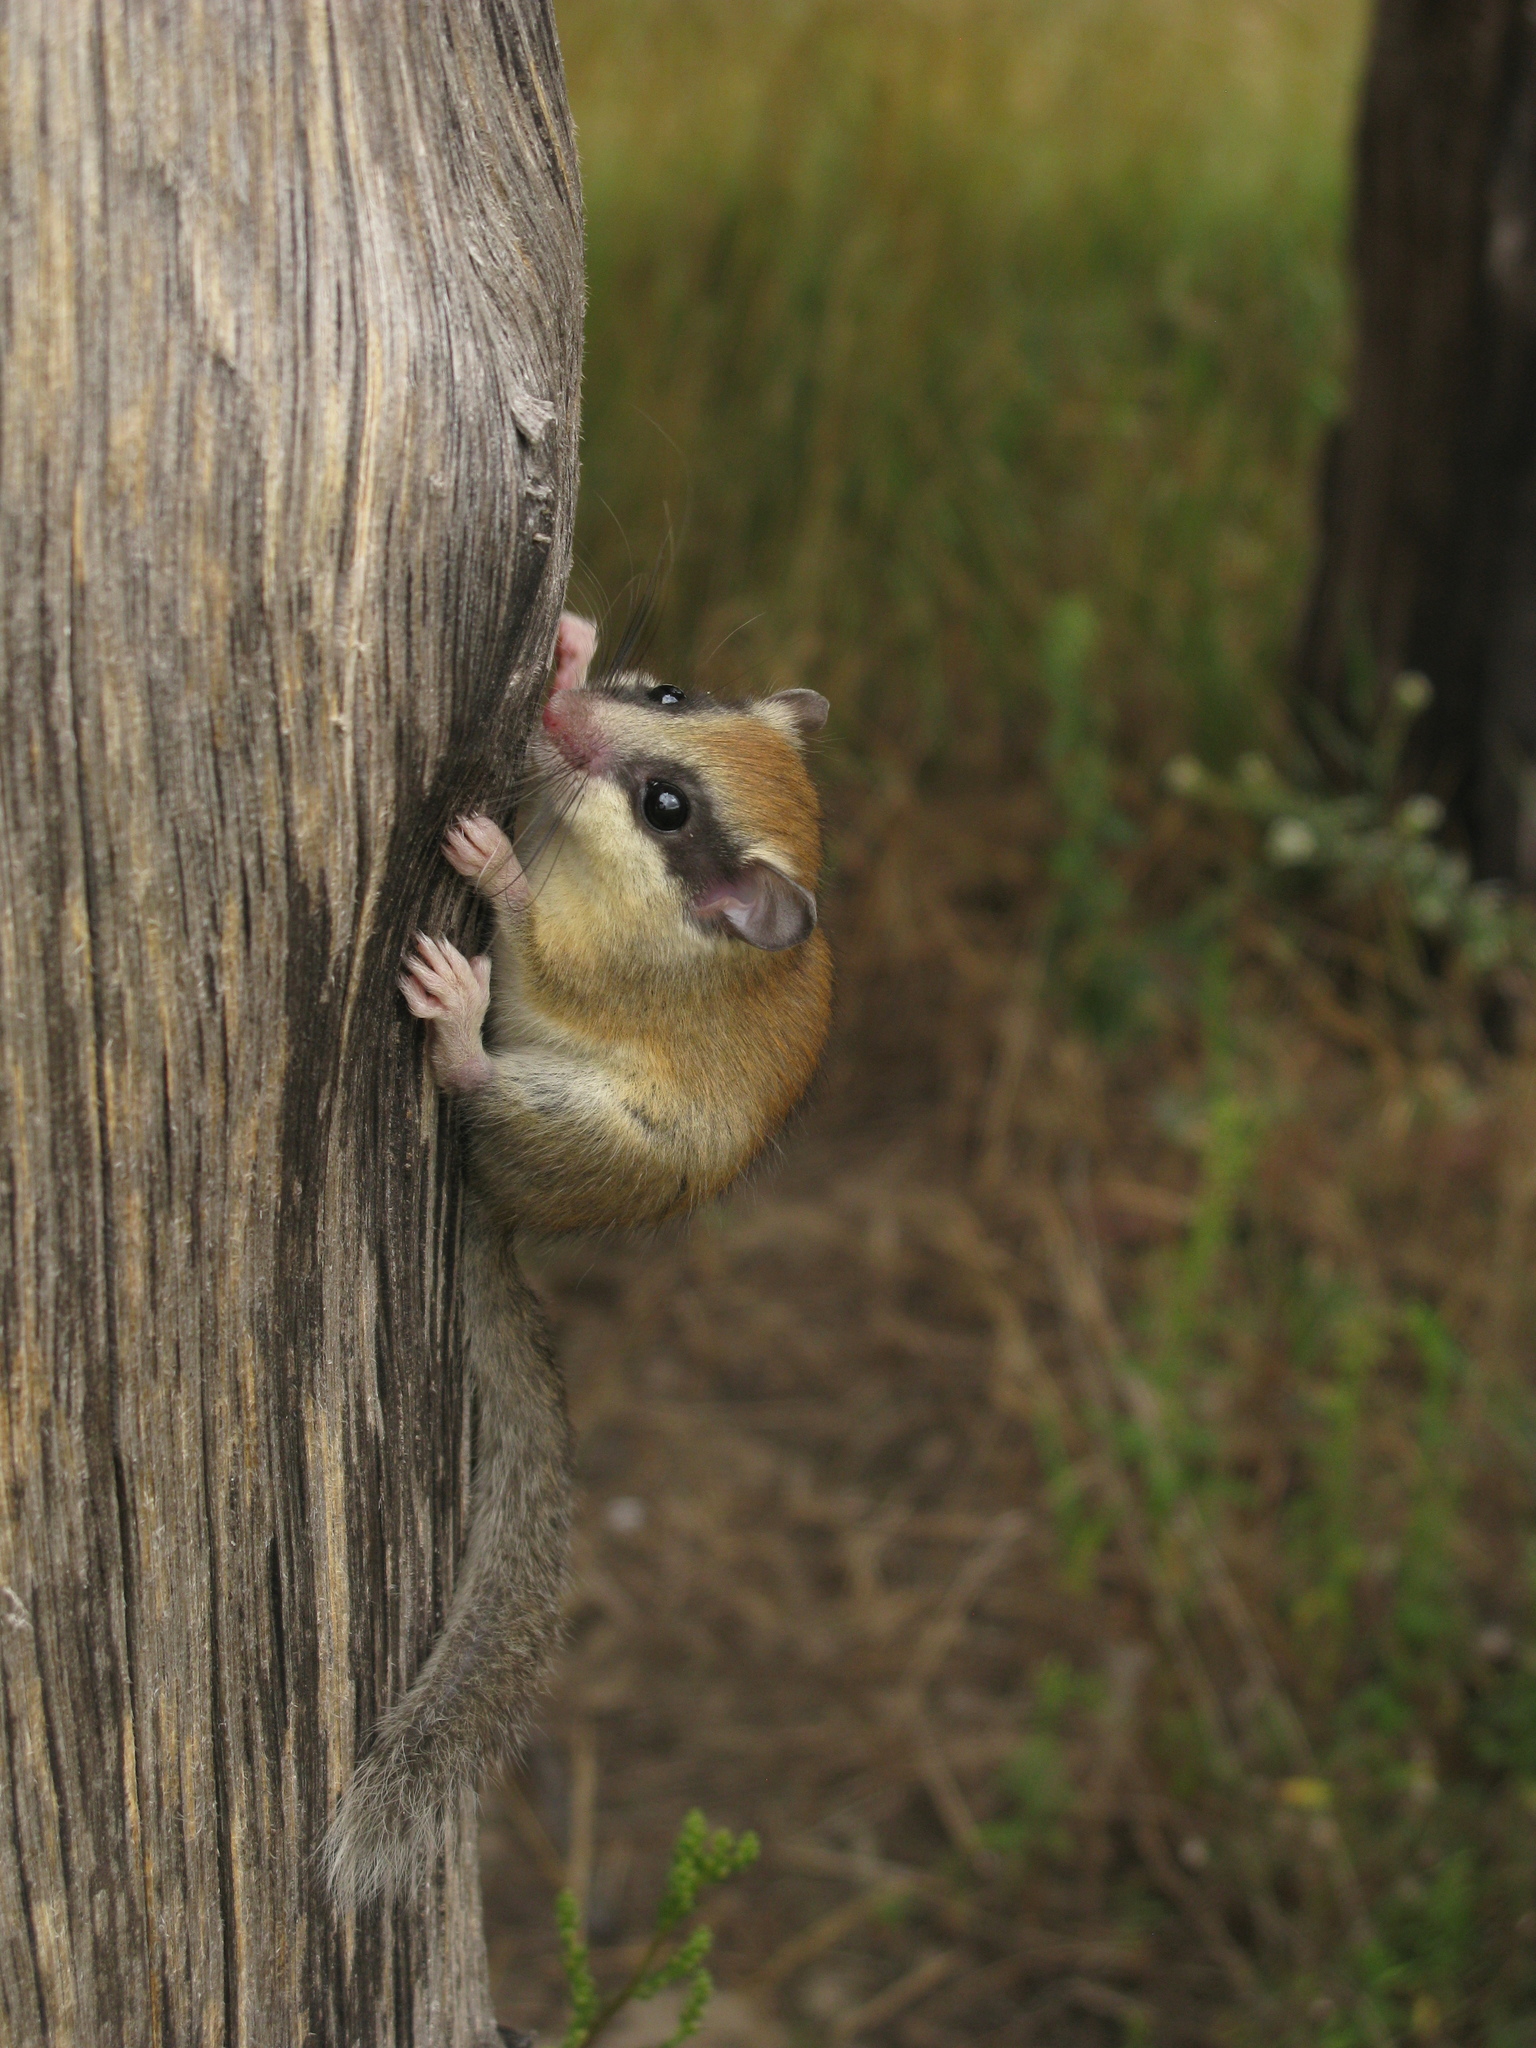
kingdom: Animalia
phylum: Chordata
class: Mammalia
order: Rodentia
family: Gliridae
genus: Dryomys
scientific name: Dryomys nitedula
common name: Forest dormouse
